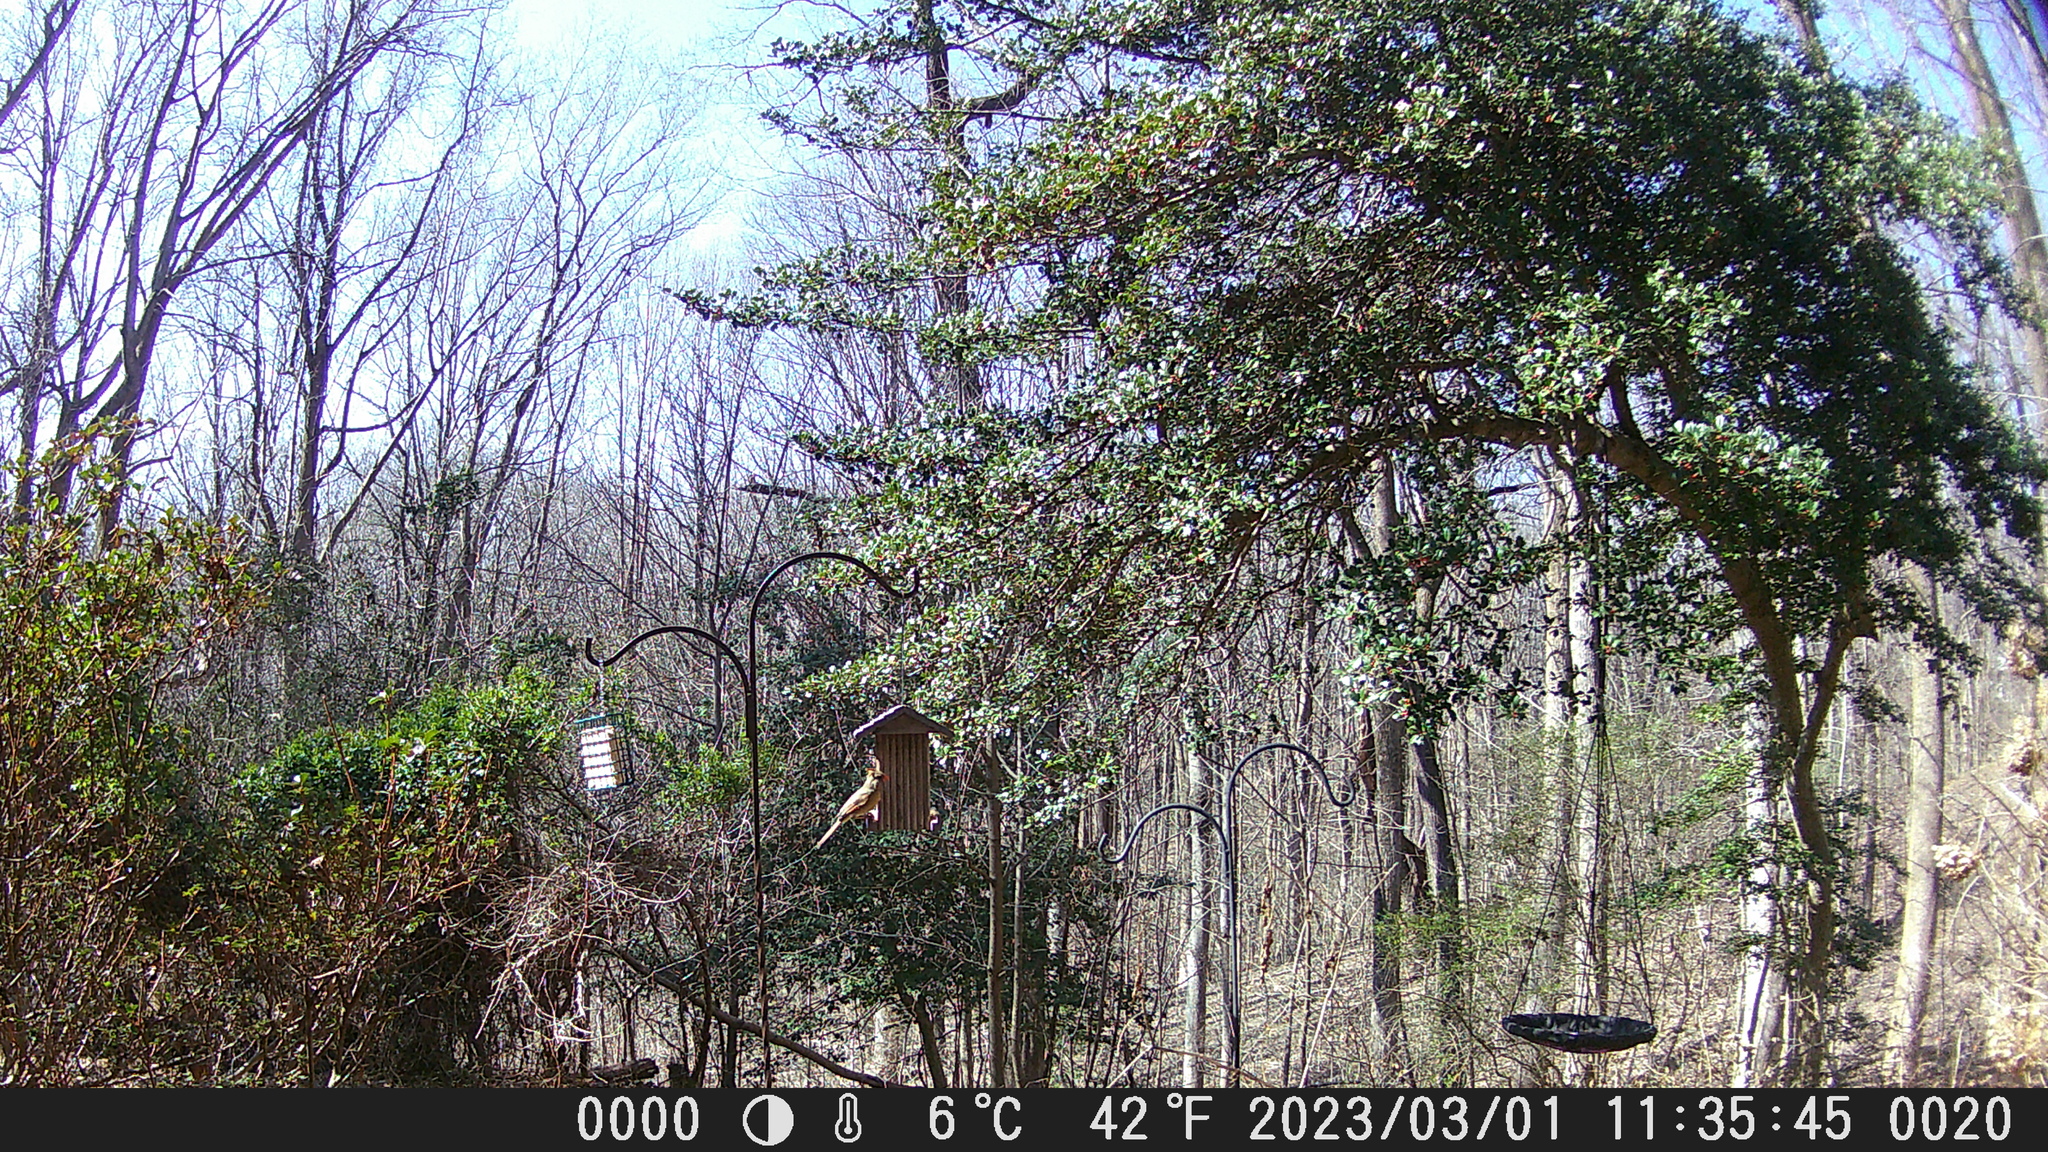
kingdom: Animalia
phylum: Chordata
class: Aves
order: Passeriformes
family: Cardinalidae
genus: Cardinalis
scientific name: Cardinalis cardinalis
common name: Northern cardinal
